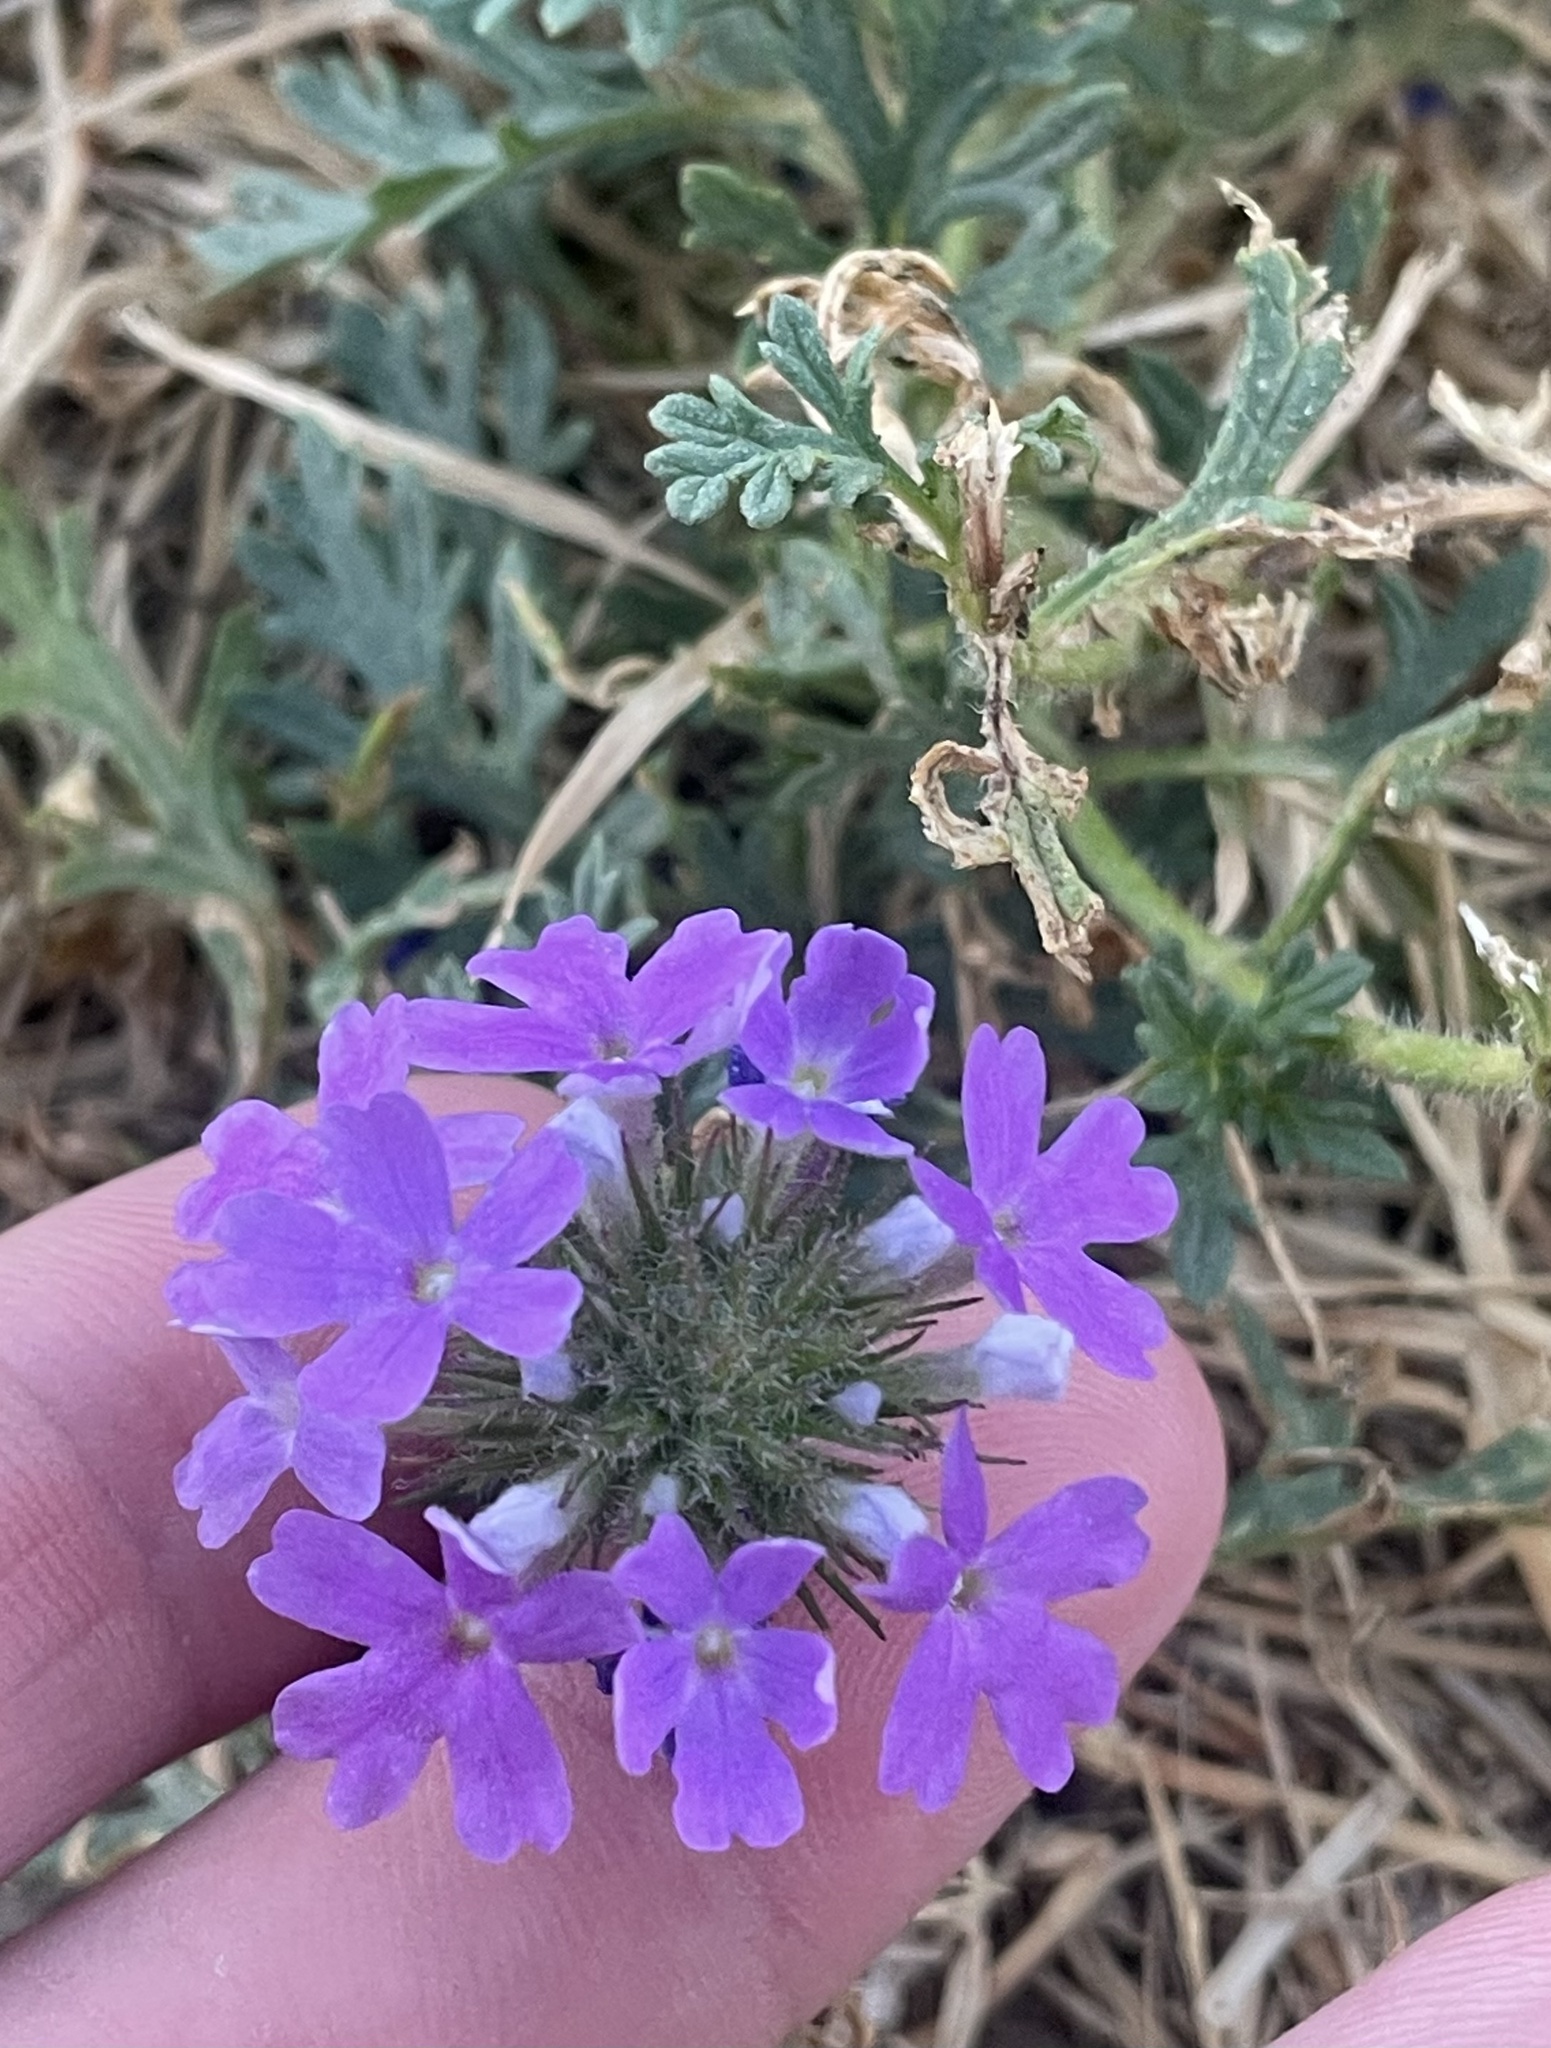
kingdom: Plantae
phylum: Tracheophyta
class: Magnoliopsida
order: Lamiales
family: Verbenaceae
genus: Verbena
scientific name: Verbena bipinnatifida
